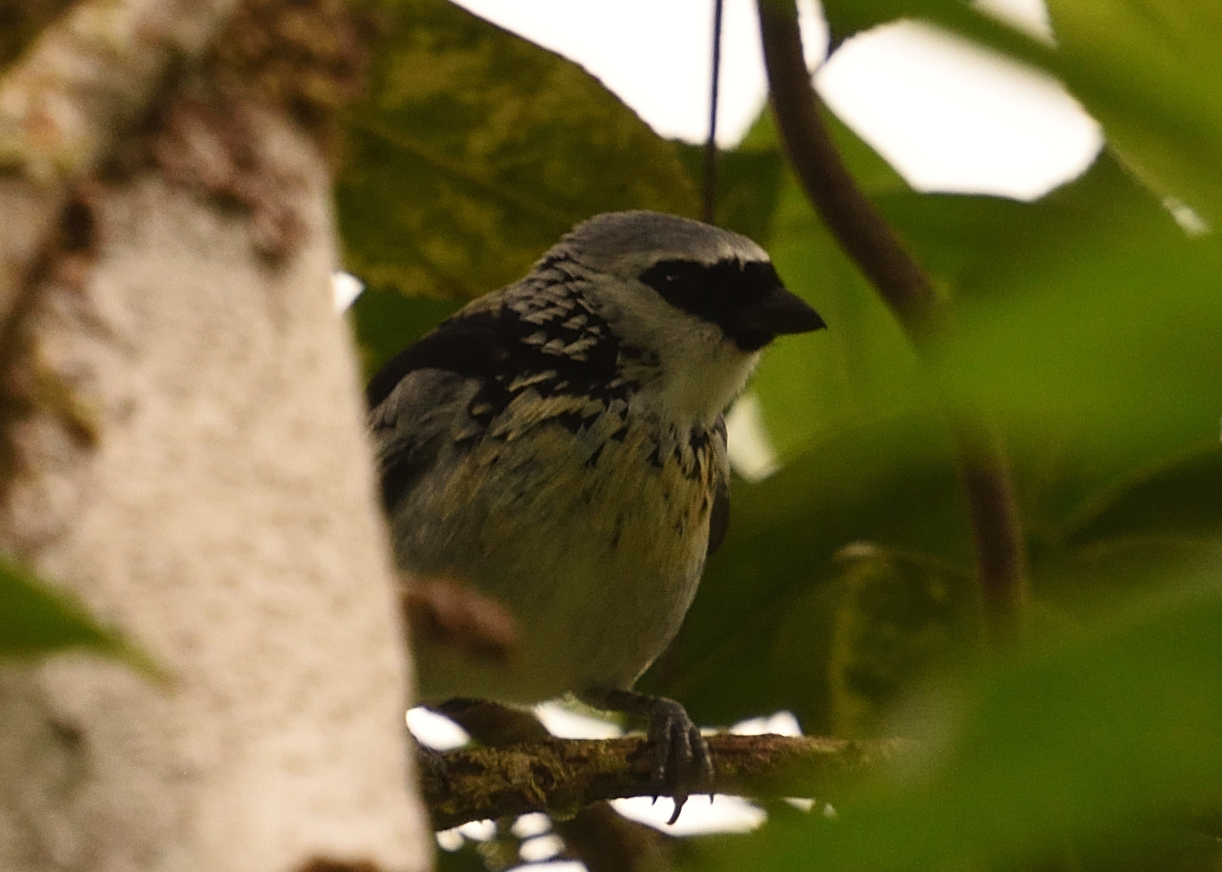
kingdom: Animalia
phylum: Chordata
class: Aves
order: Passeriformes
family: Thraupidae
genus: Poecilostreptus
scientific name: Poecilostreptus palmeri
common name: Grey-and-gold tanager
